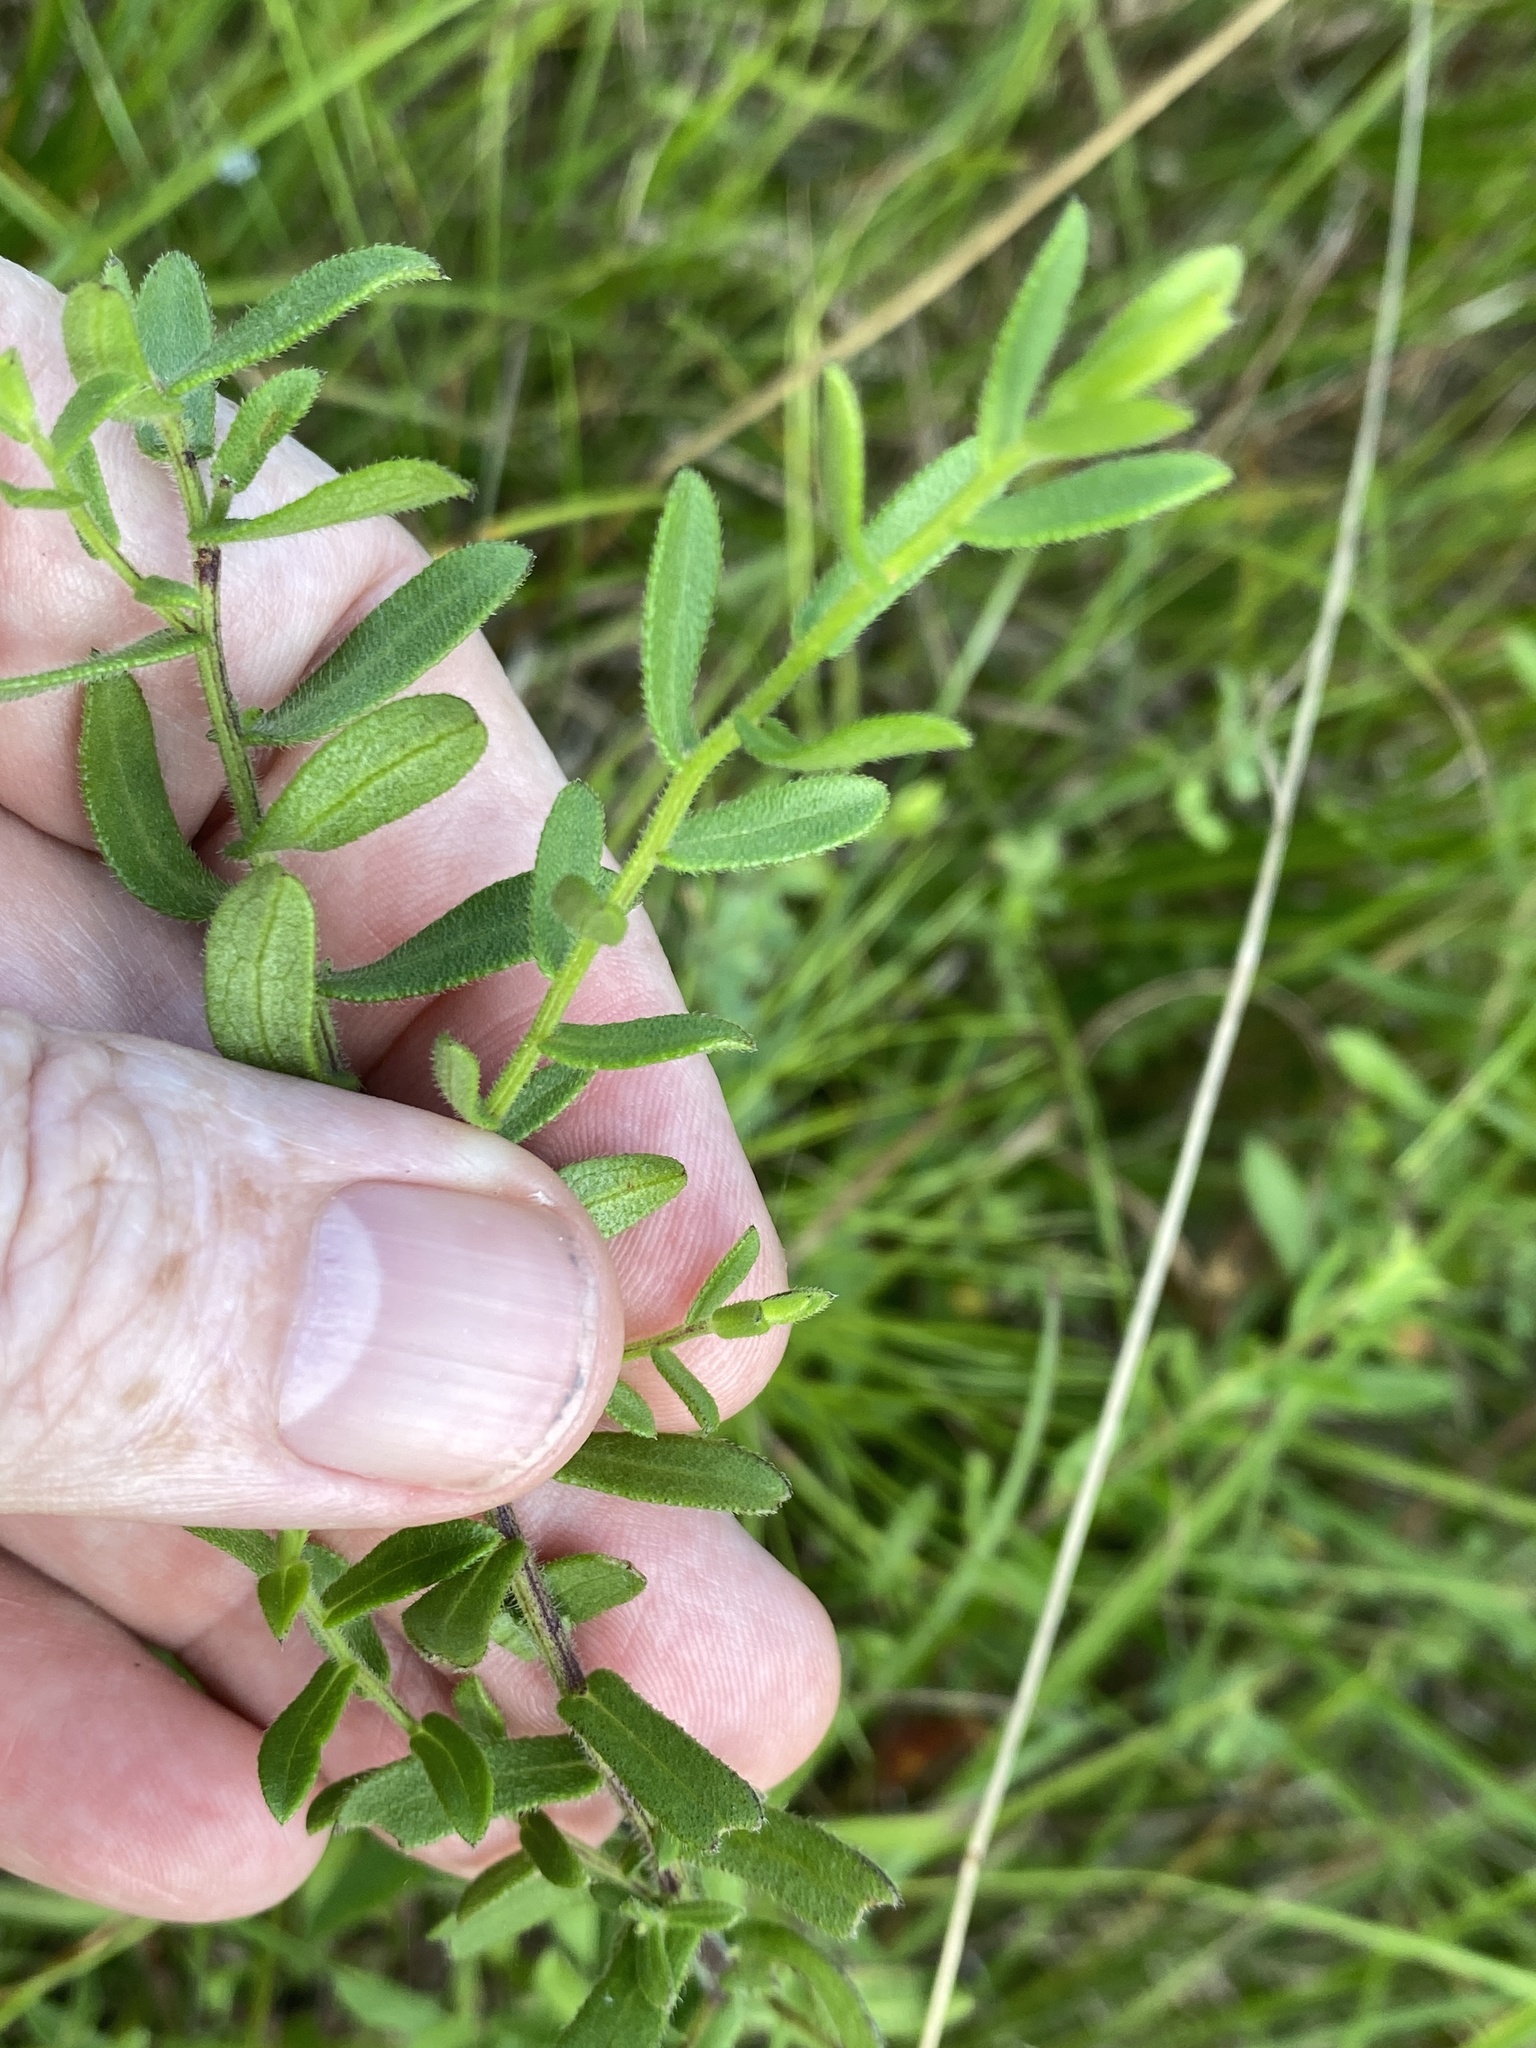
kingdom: Plantae
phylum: Tracheophyta
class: Magnoliopsida
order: Asterales
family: Asteraceae
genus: Symphyotrichum
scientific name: Symphyotrichum grandiflorum
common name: Big-head aster
